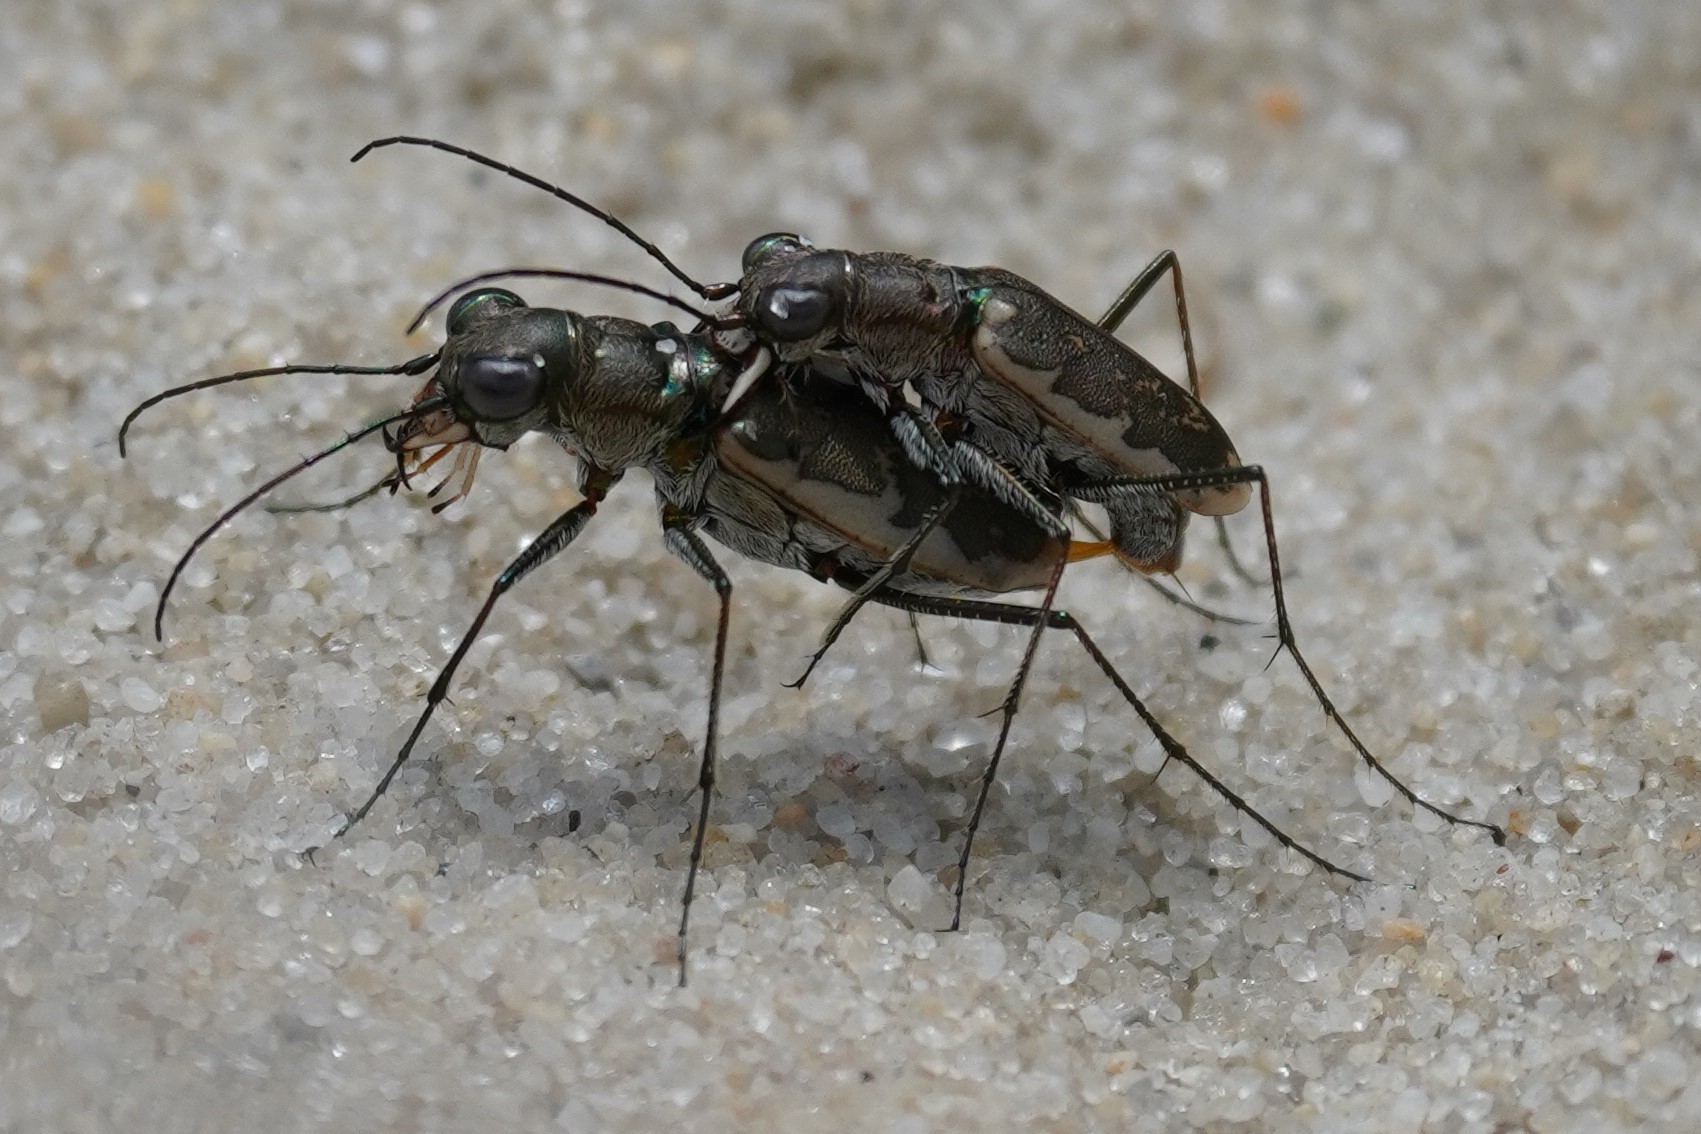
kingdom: Animalia
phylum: Arthropoda
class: Insecta
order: Coleoptera
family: Carabidae
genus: Ellipsoptera
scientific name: Ellipsoptera marginata
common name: Margined tiger beetle
